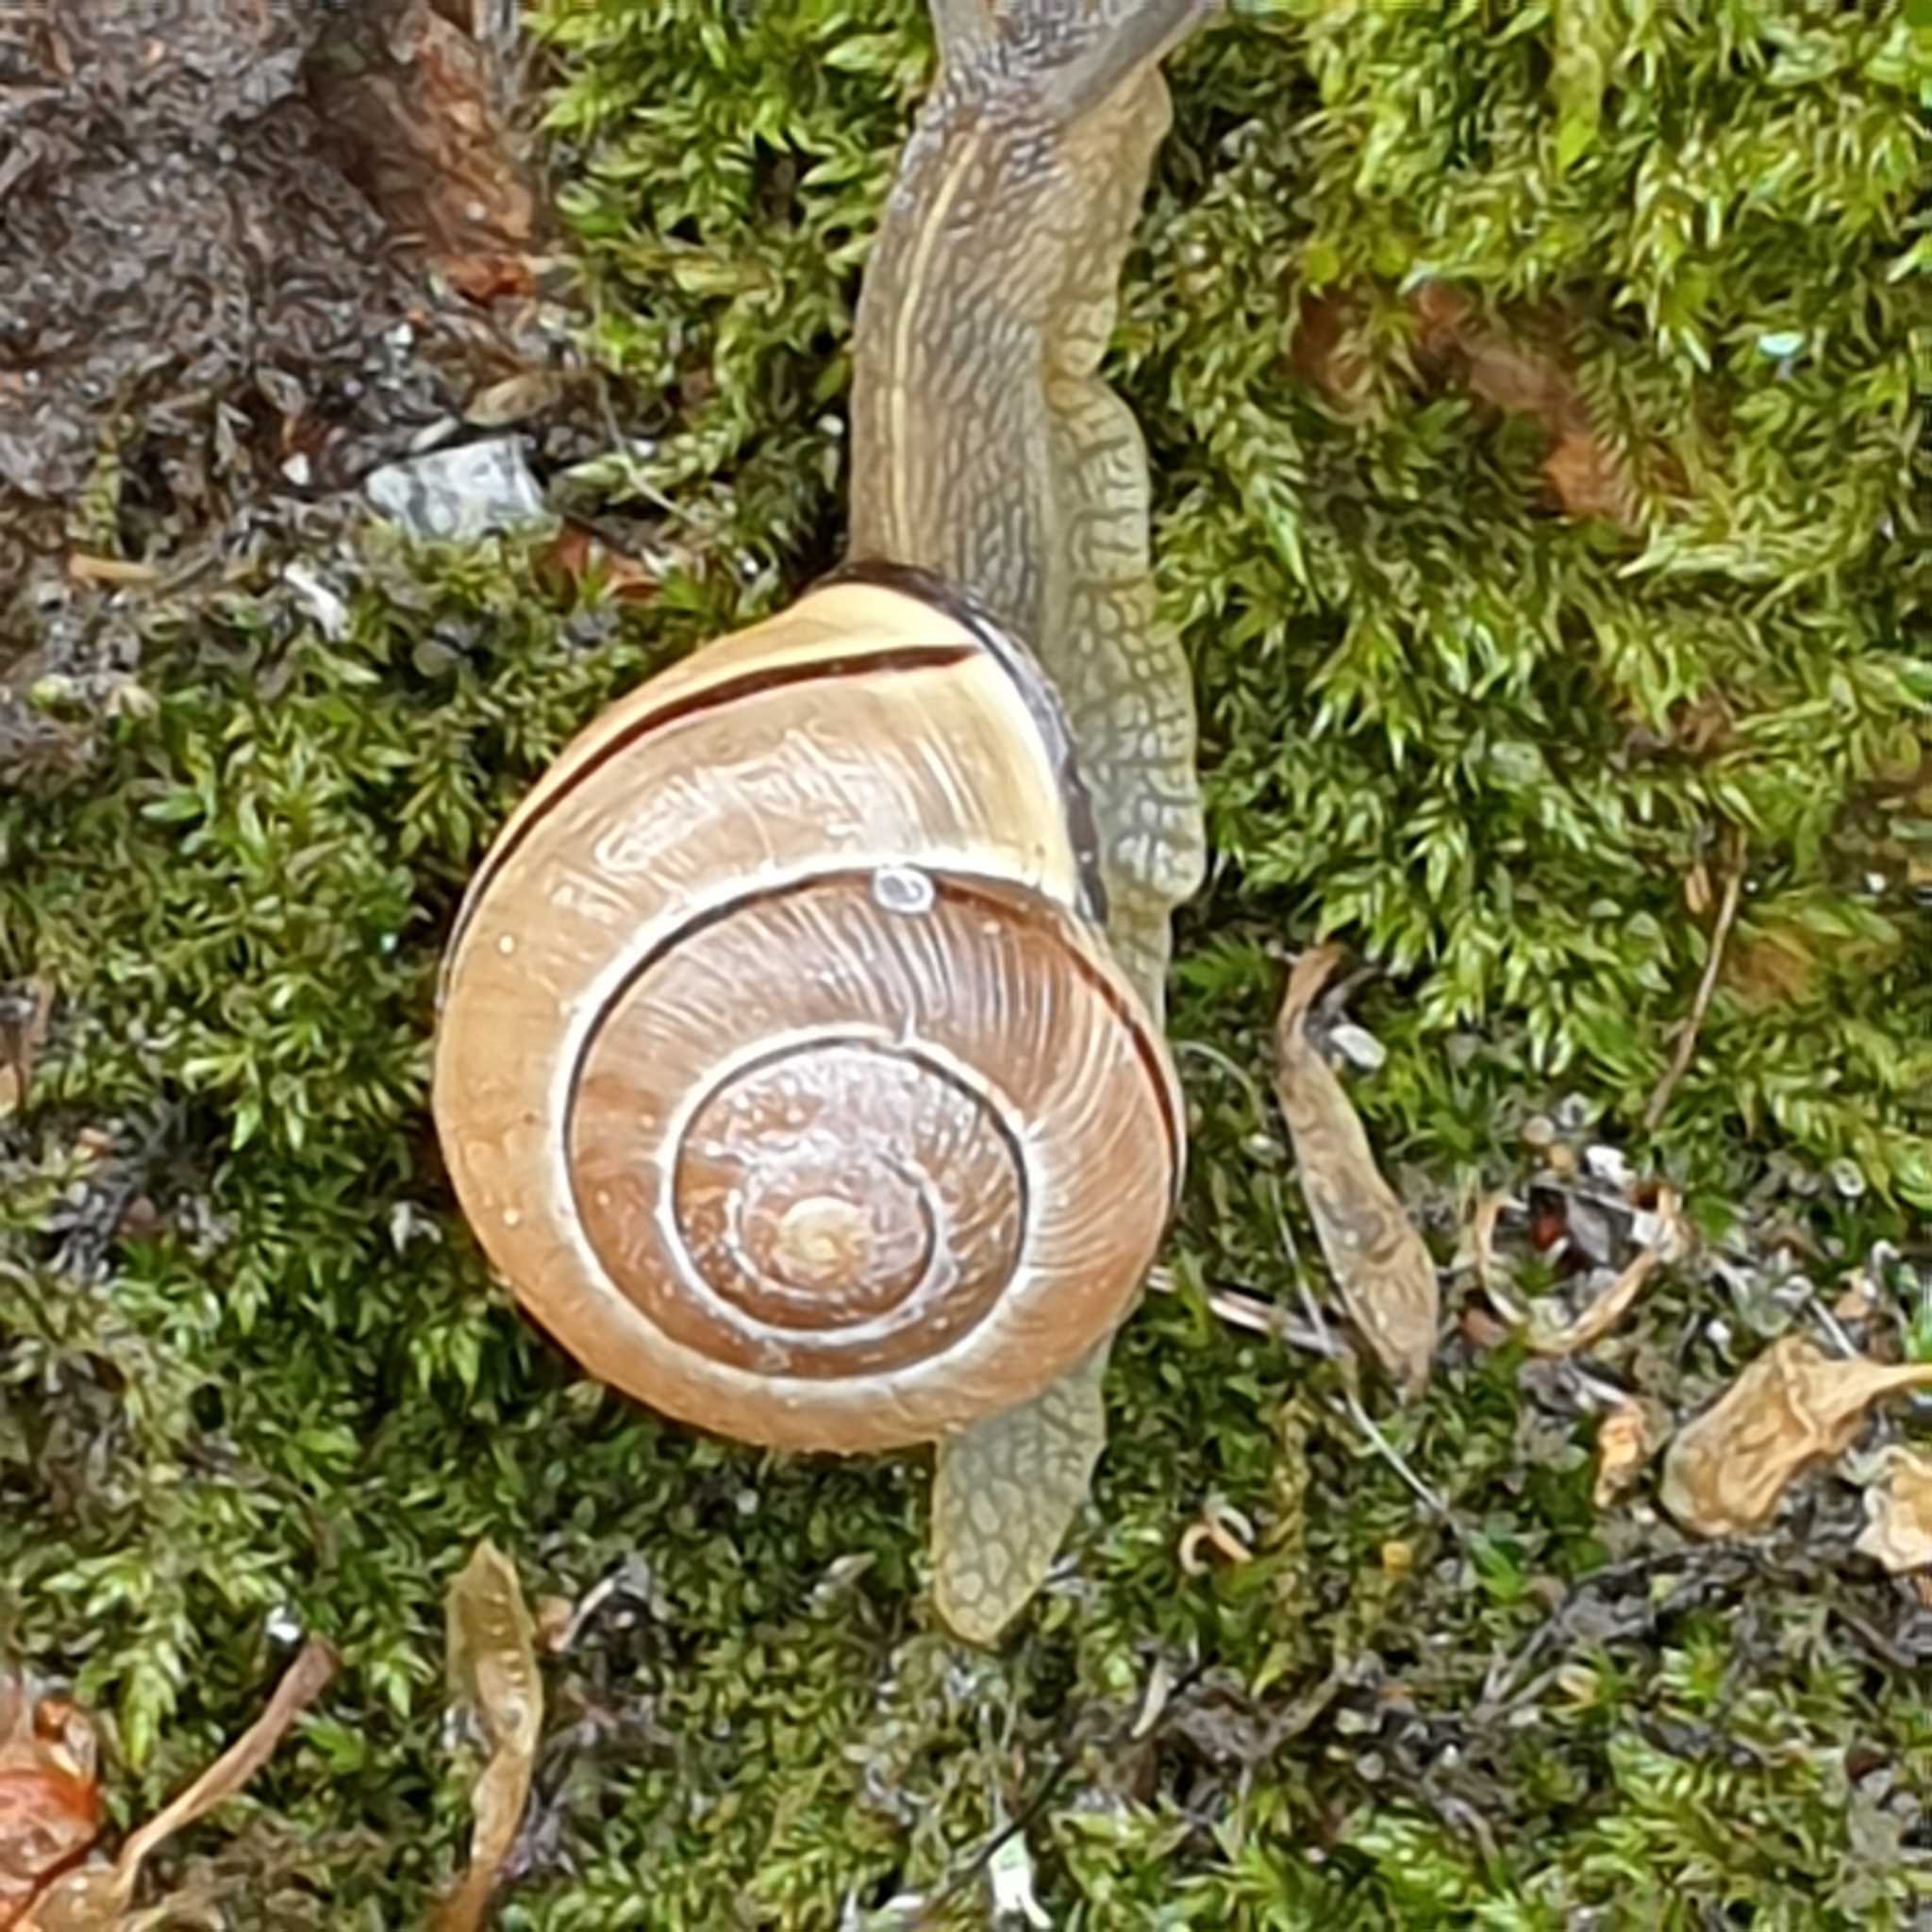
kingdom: Animalia
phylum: Mollusca
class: Gastropoda
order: Stylommatophora
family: Helicidae
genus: Cepaea
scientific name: Cepaea nemoralis
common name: Grovesnail
